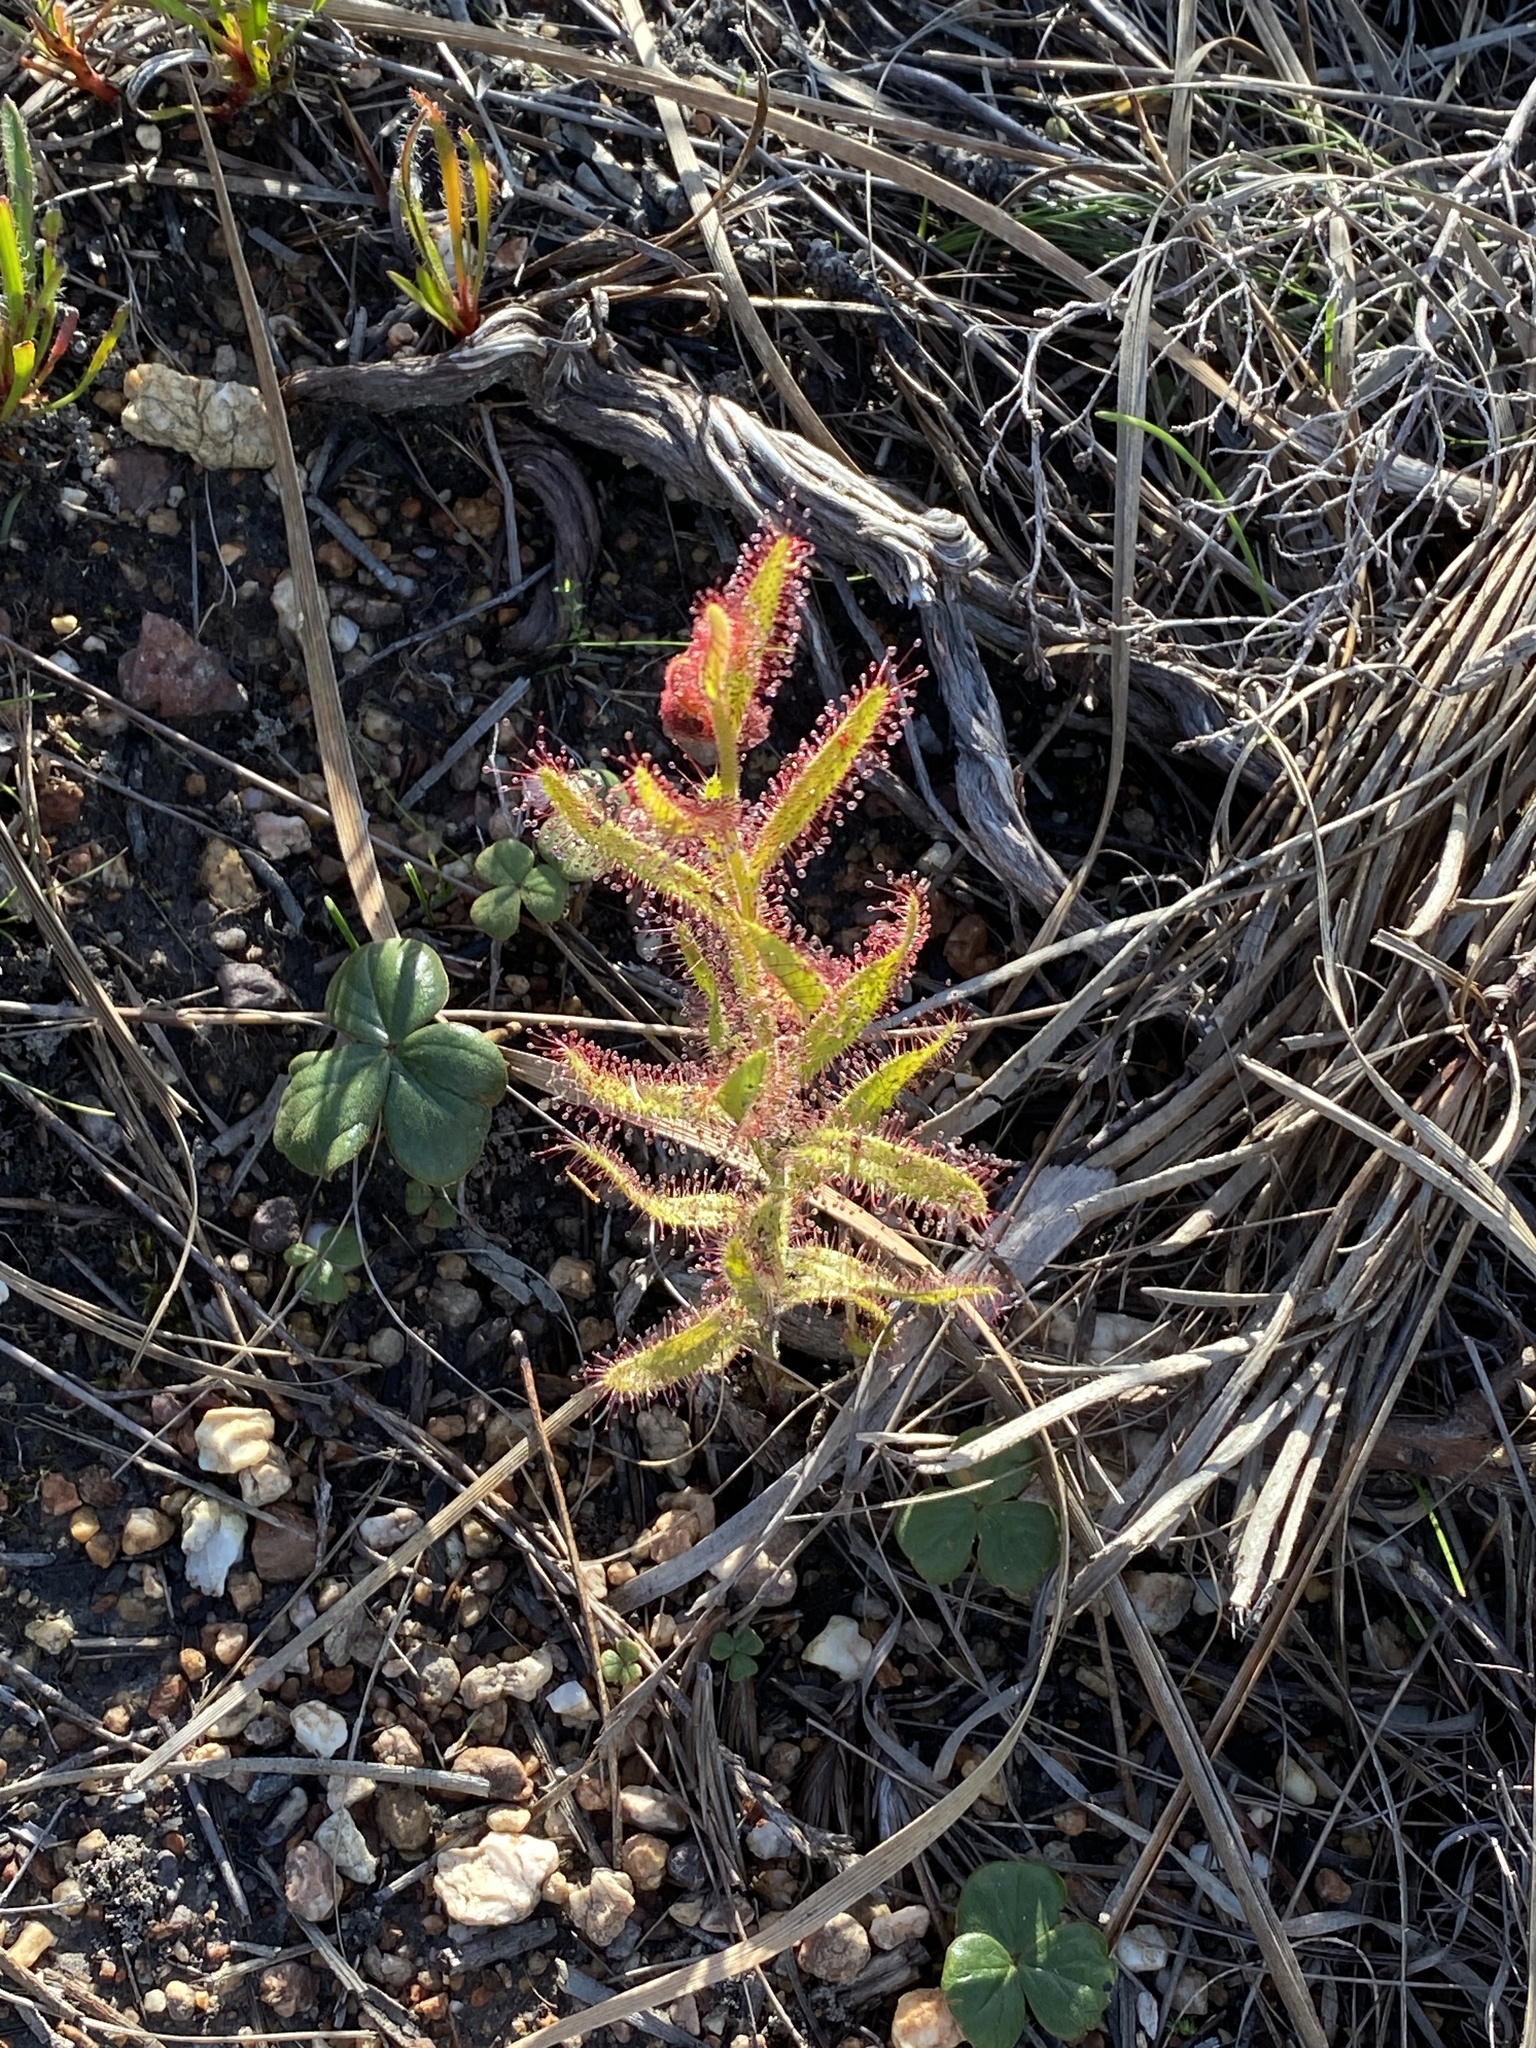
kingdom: Plantae
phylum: Tracheophyta
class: Magnoliopsida
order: Caryophyllales
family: Droseraceae
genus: Drosera
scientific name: Drosera cistiflora
